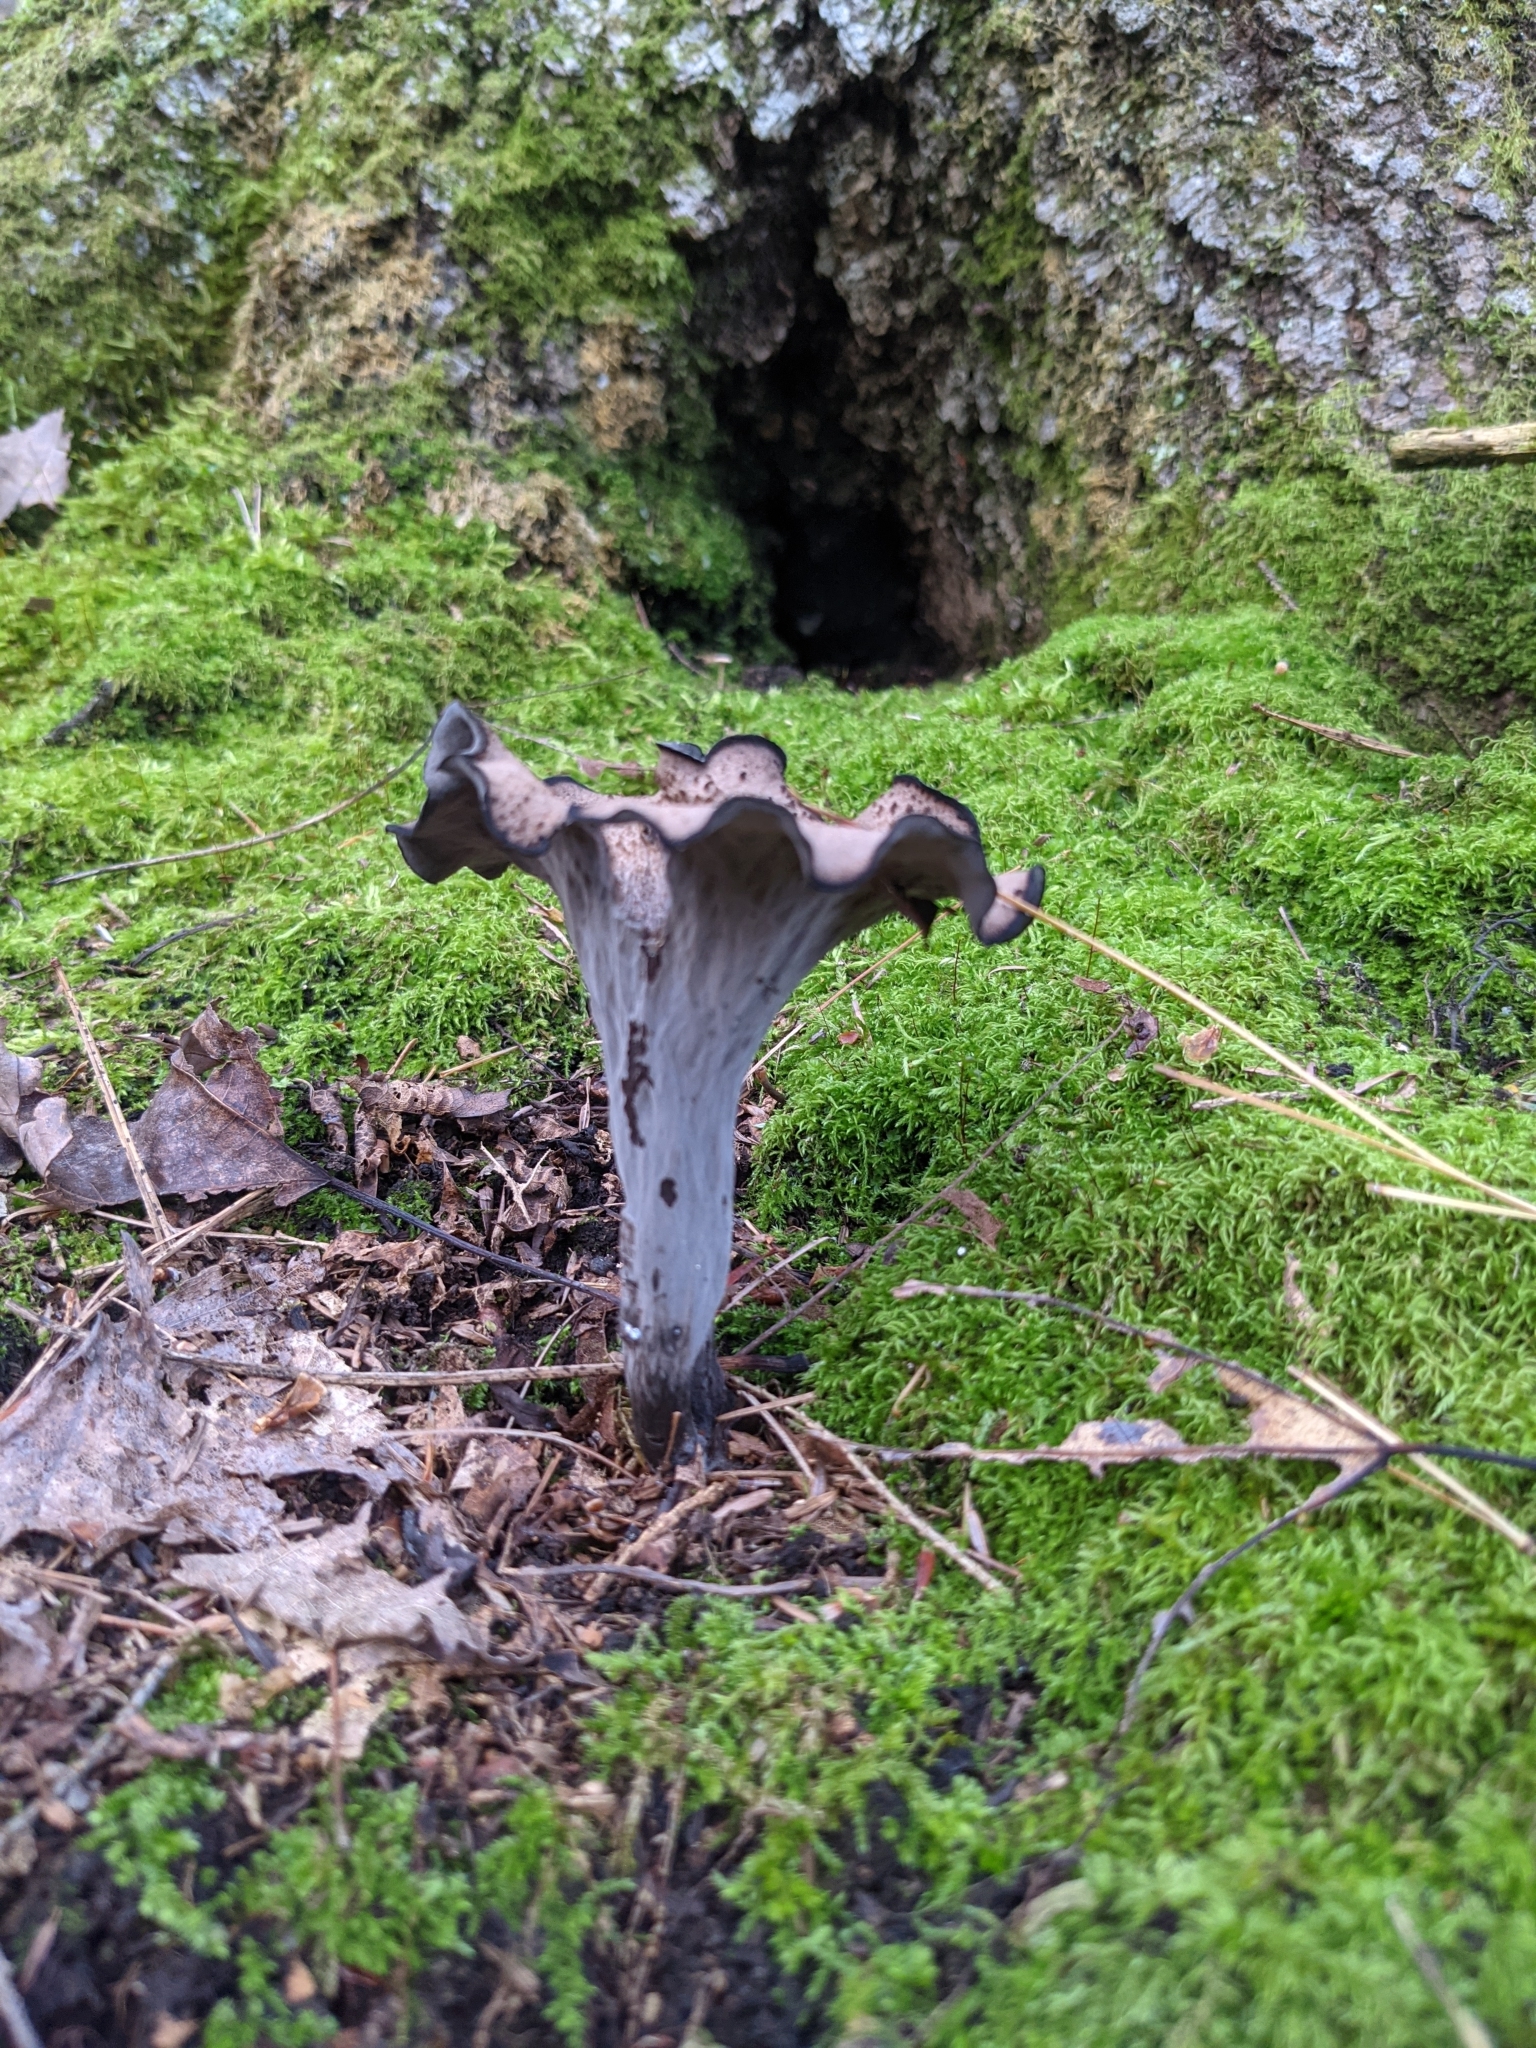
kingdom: Fungi
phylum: Basidiomycota
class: Agaricomycetes
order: Cantharellales
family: Hydnaceae
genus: Craterellus
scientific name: Craterellus cornucopioides
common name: Horn of plenty
